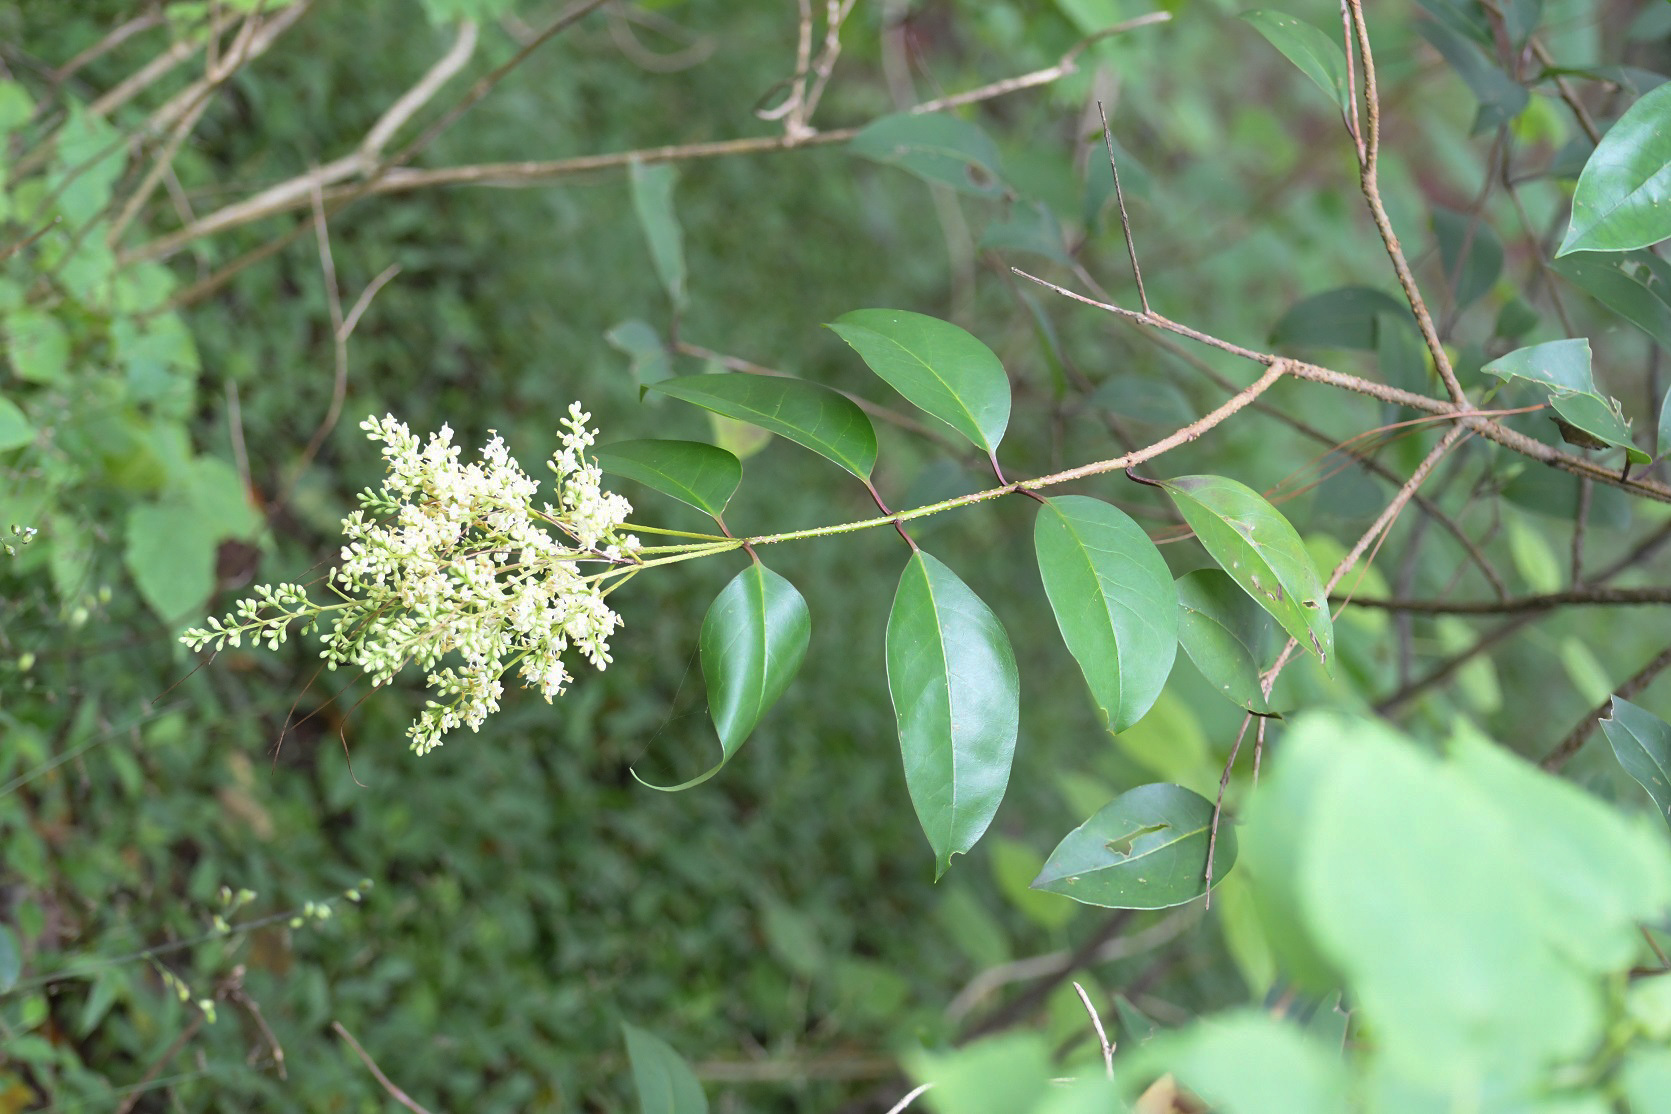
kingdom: Plantae
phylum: Tracheophyta
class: Magnoliopsida
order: Lamiales
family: Oleaceae
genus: Ligustrum
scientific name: Ligustrum lucidum
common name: Glossy privet
